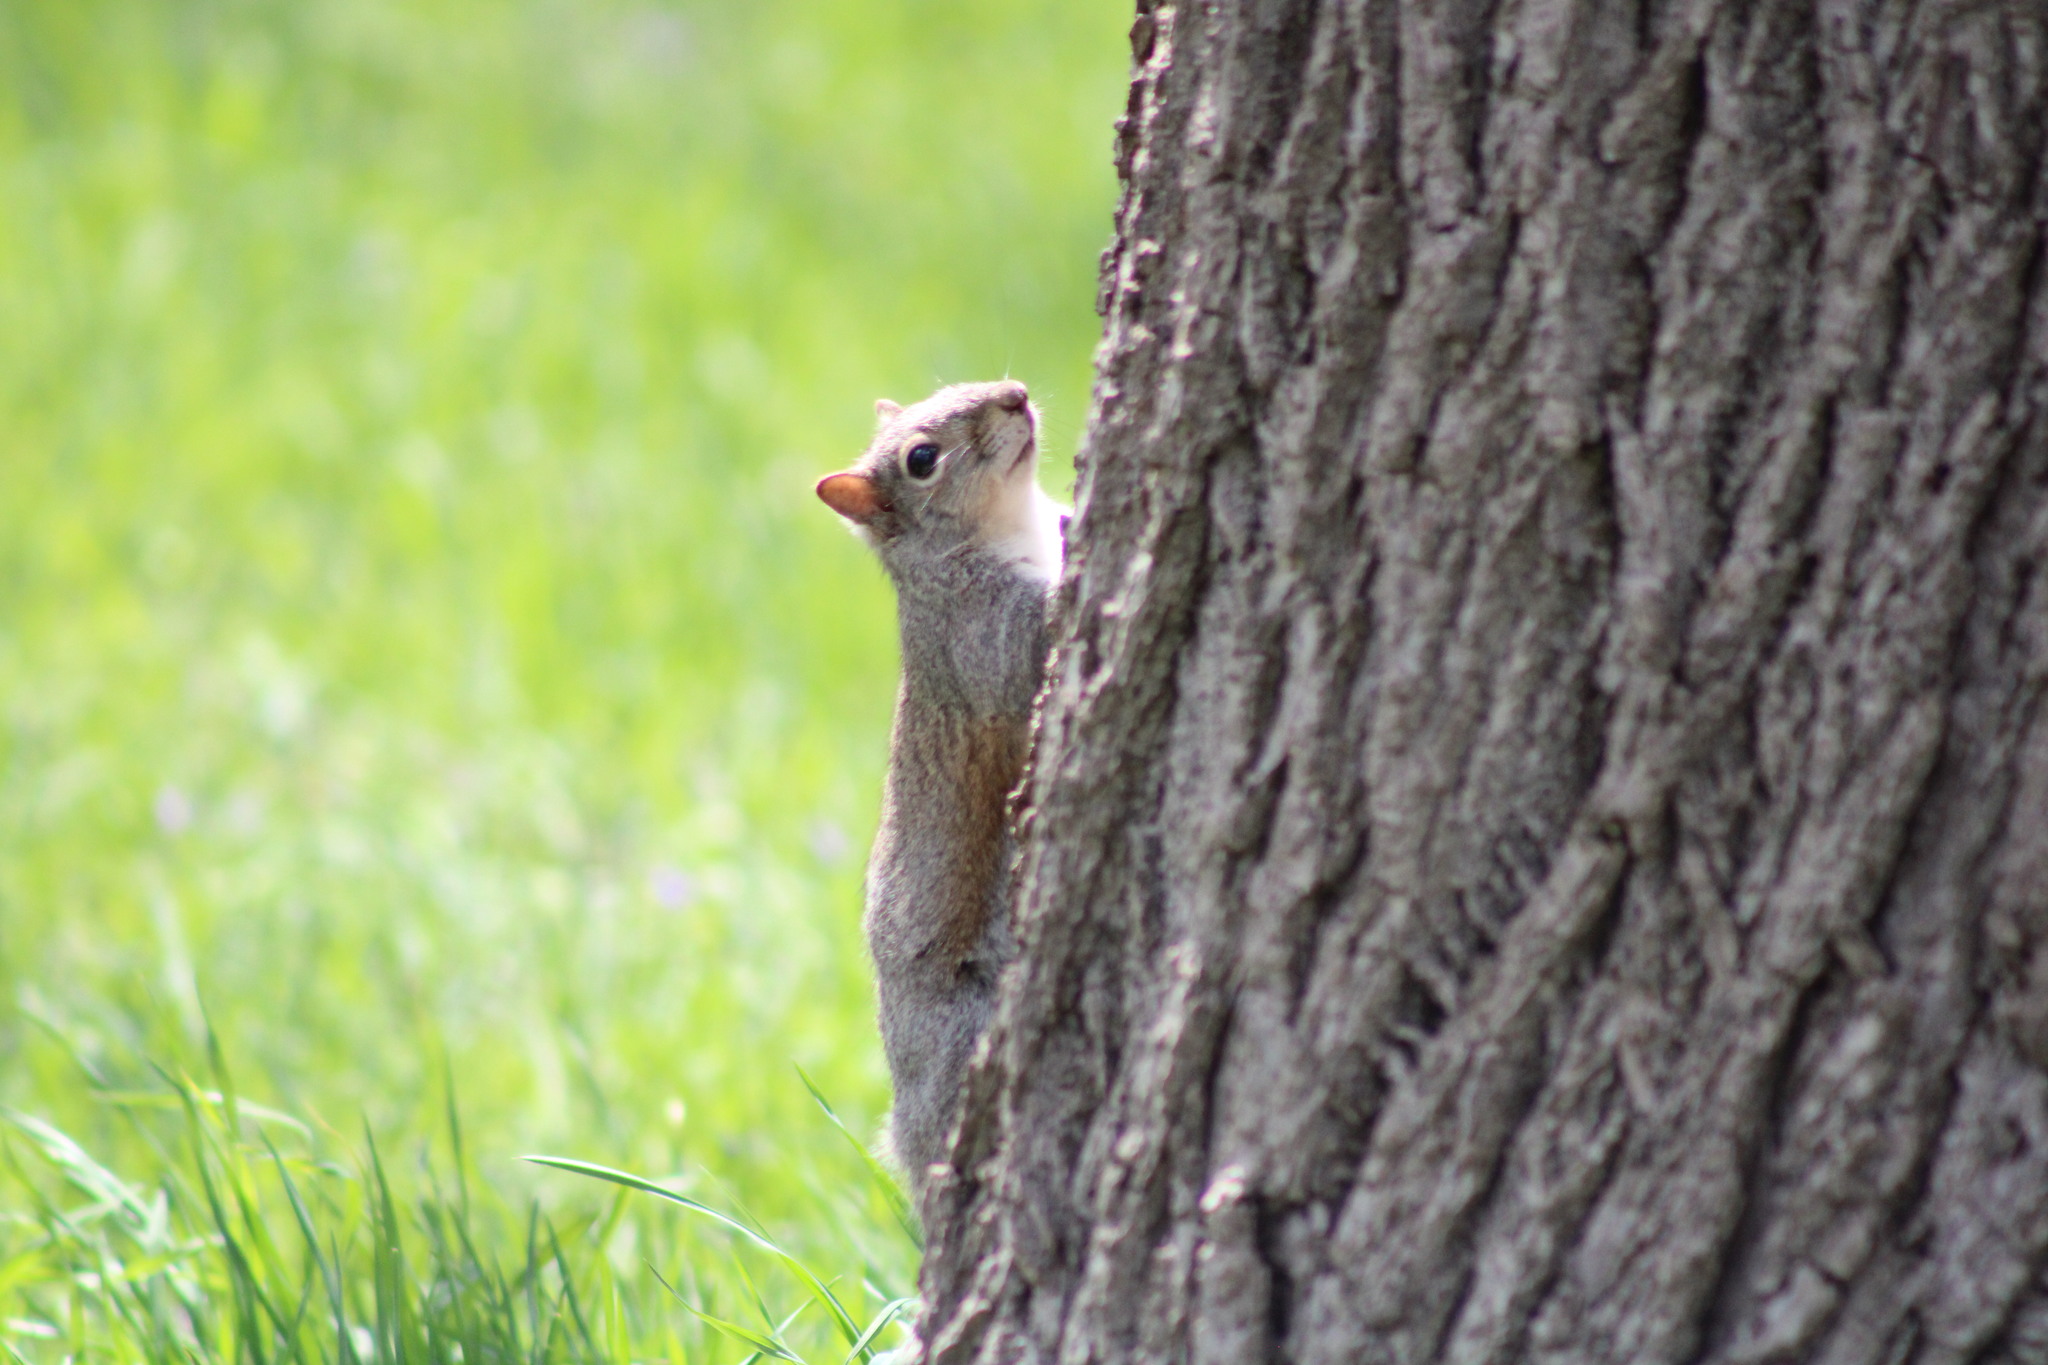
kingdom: Animalia
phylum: Chordata
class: Mammalia
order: Rodentia
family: Sciuridae
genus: Sciurus
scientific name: Sciurus carolinensis
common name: Eastern gray squirrel
